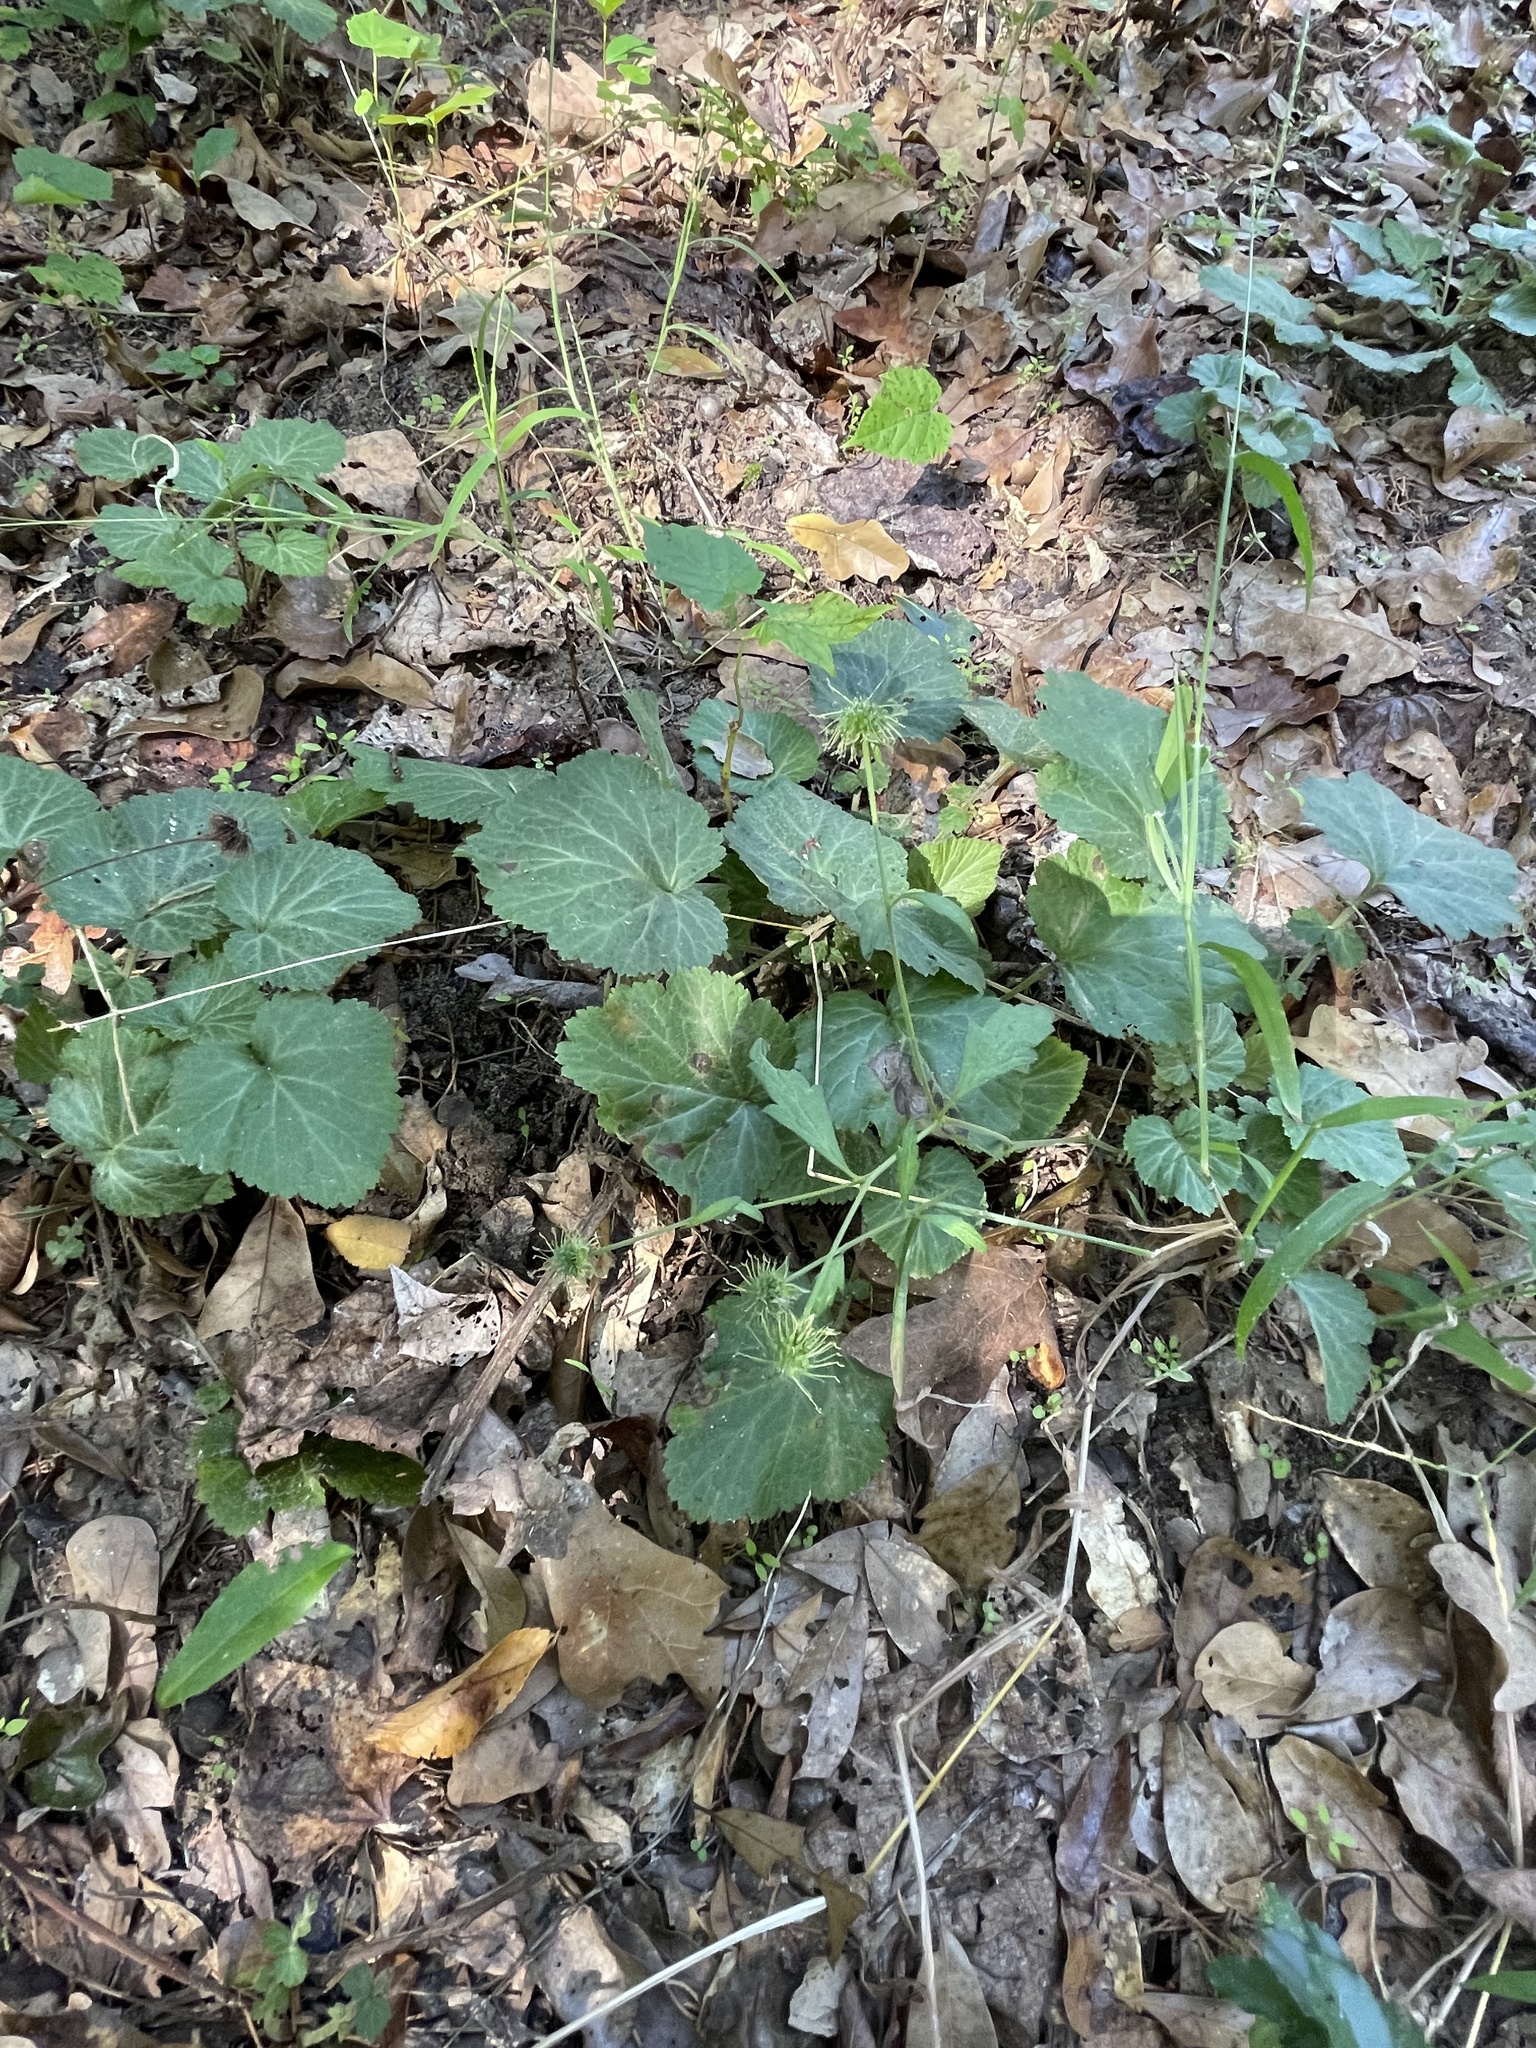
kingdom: Plantae
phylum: Tracheophyta
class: Magnoliopsida
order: Rosales
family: Rosaceae
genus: Geum
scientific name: Geum canadense
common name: White avens
